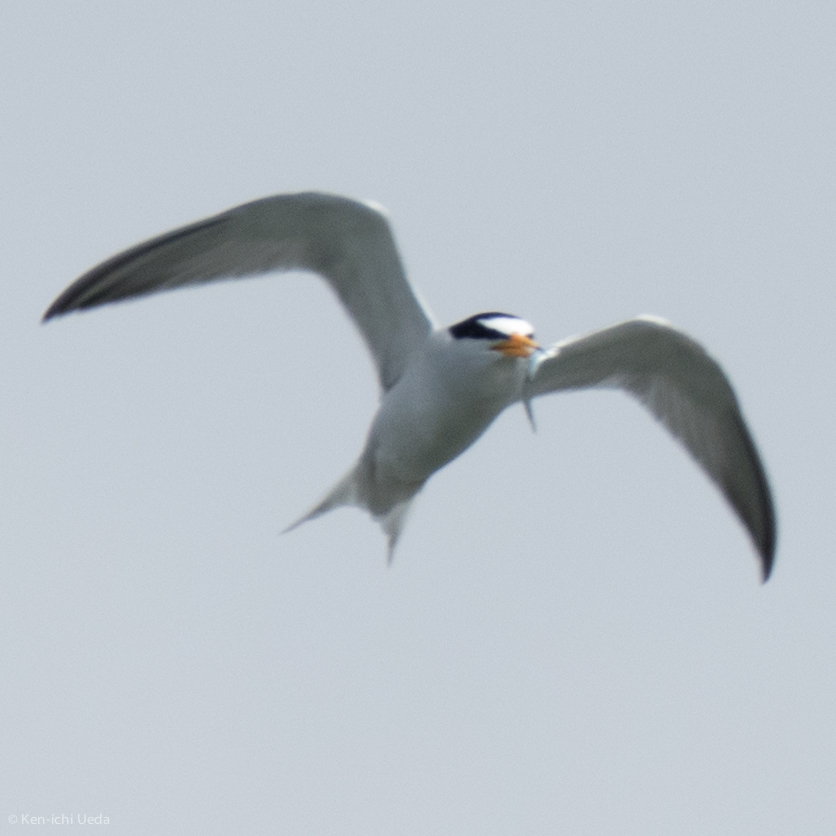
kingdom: Animalia
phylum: Chordata
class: Aves
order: Charadriiformes
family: Laridae
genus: Sternula
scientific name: Sternula antillarum
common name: Least tern
